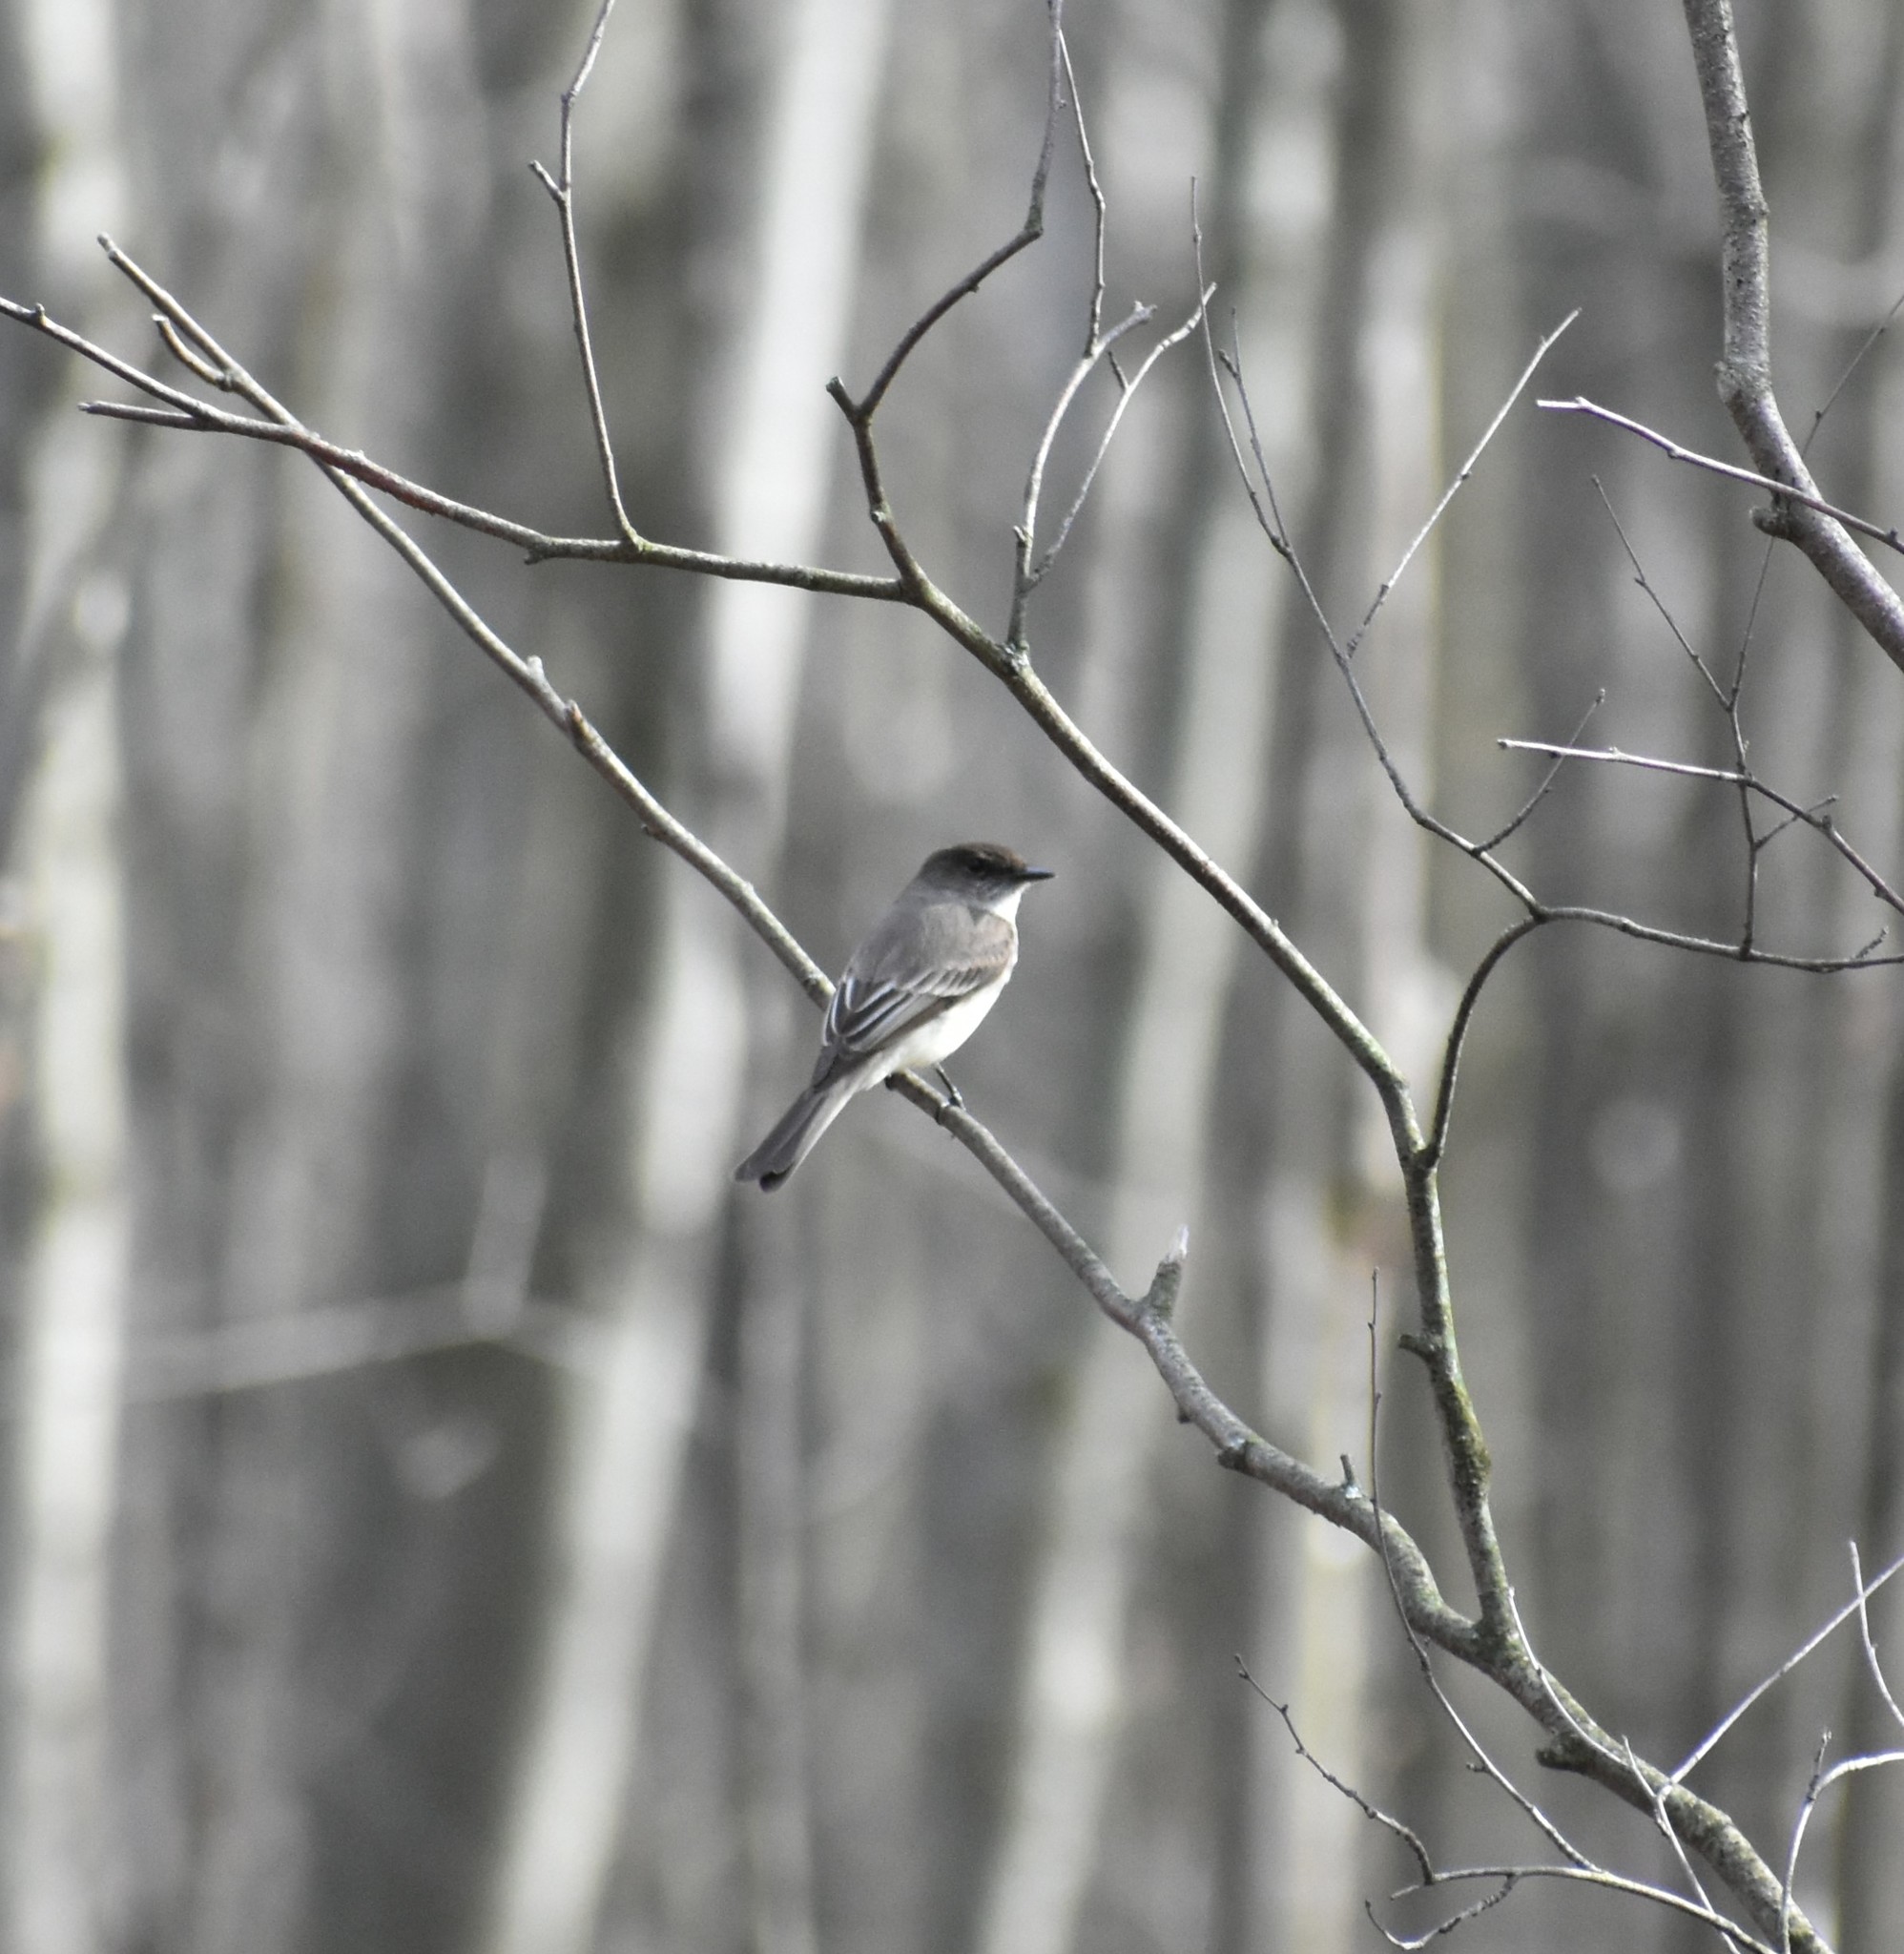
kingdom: Animalia
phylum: Chordata
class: Aves
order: Passeriformes
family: Tyrannidae
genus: Sayornis
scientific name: Sayornis phoebe
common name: Eastern phoebe
